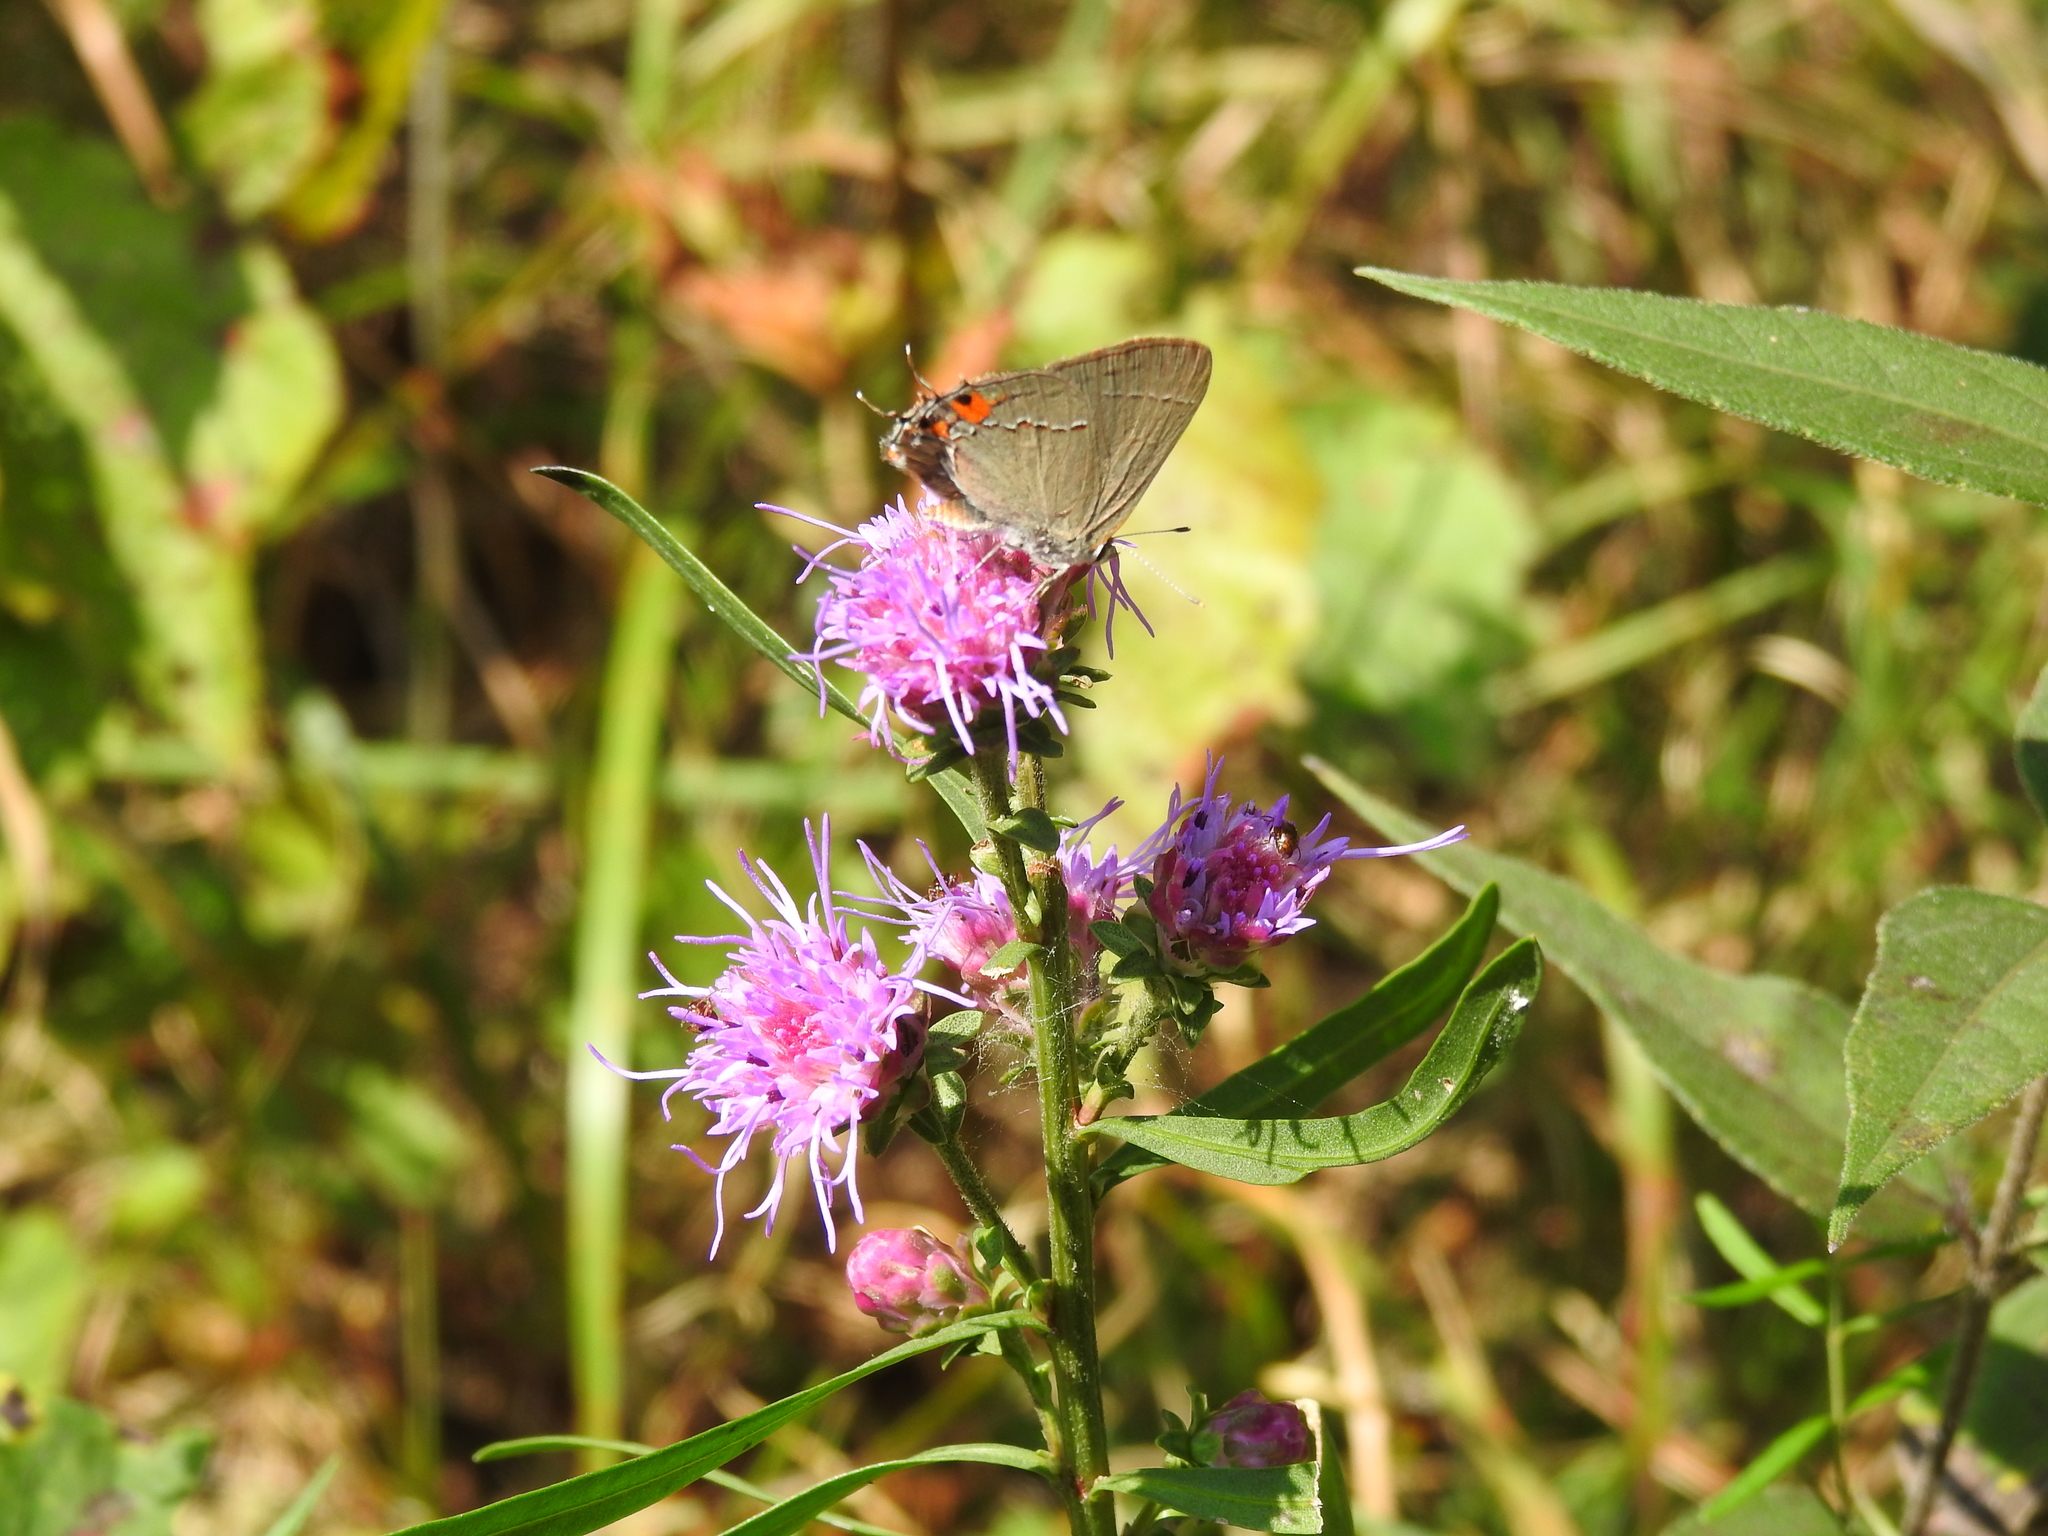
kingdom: Animalia
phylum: Arthropoda
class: Insecta
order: Lepidoptera
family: Lycaenidae
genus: Strymon
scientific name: Strymon melinus
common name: Gray hairstreak
